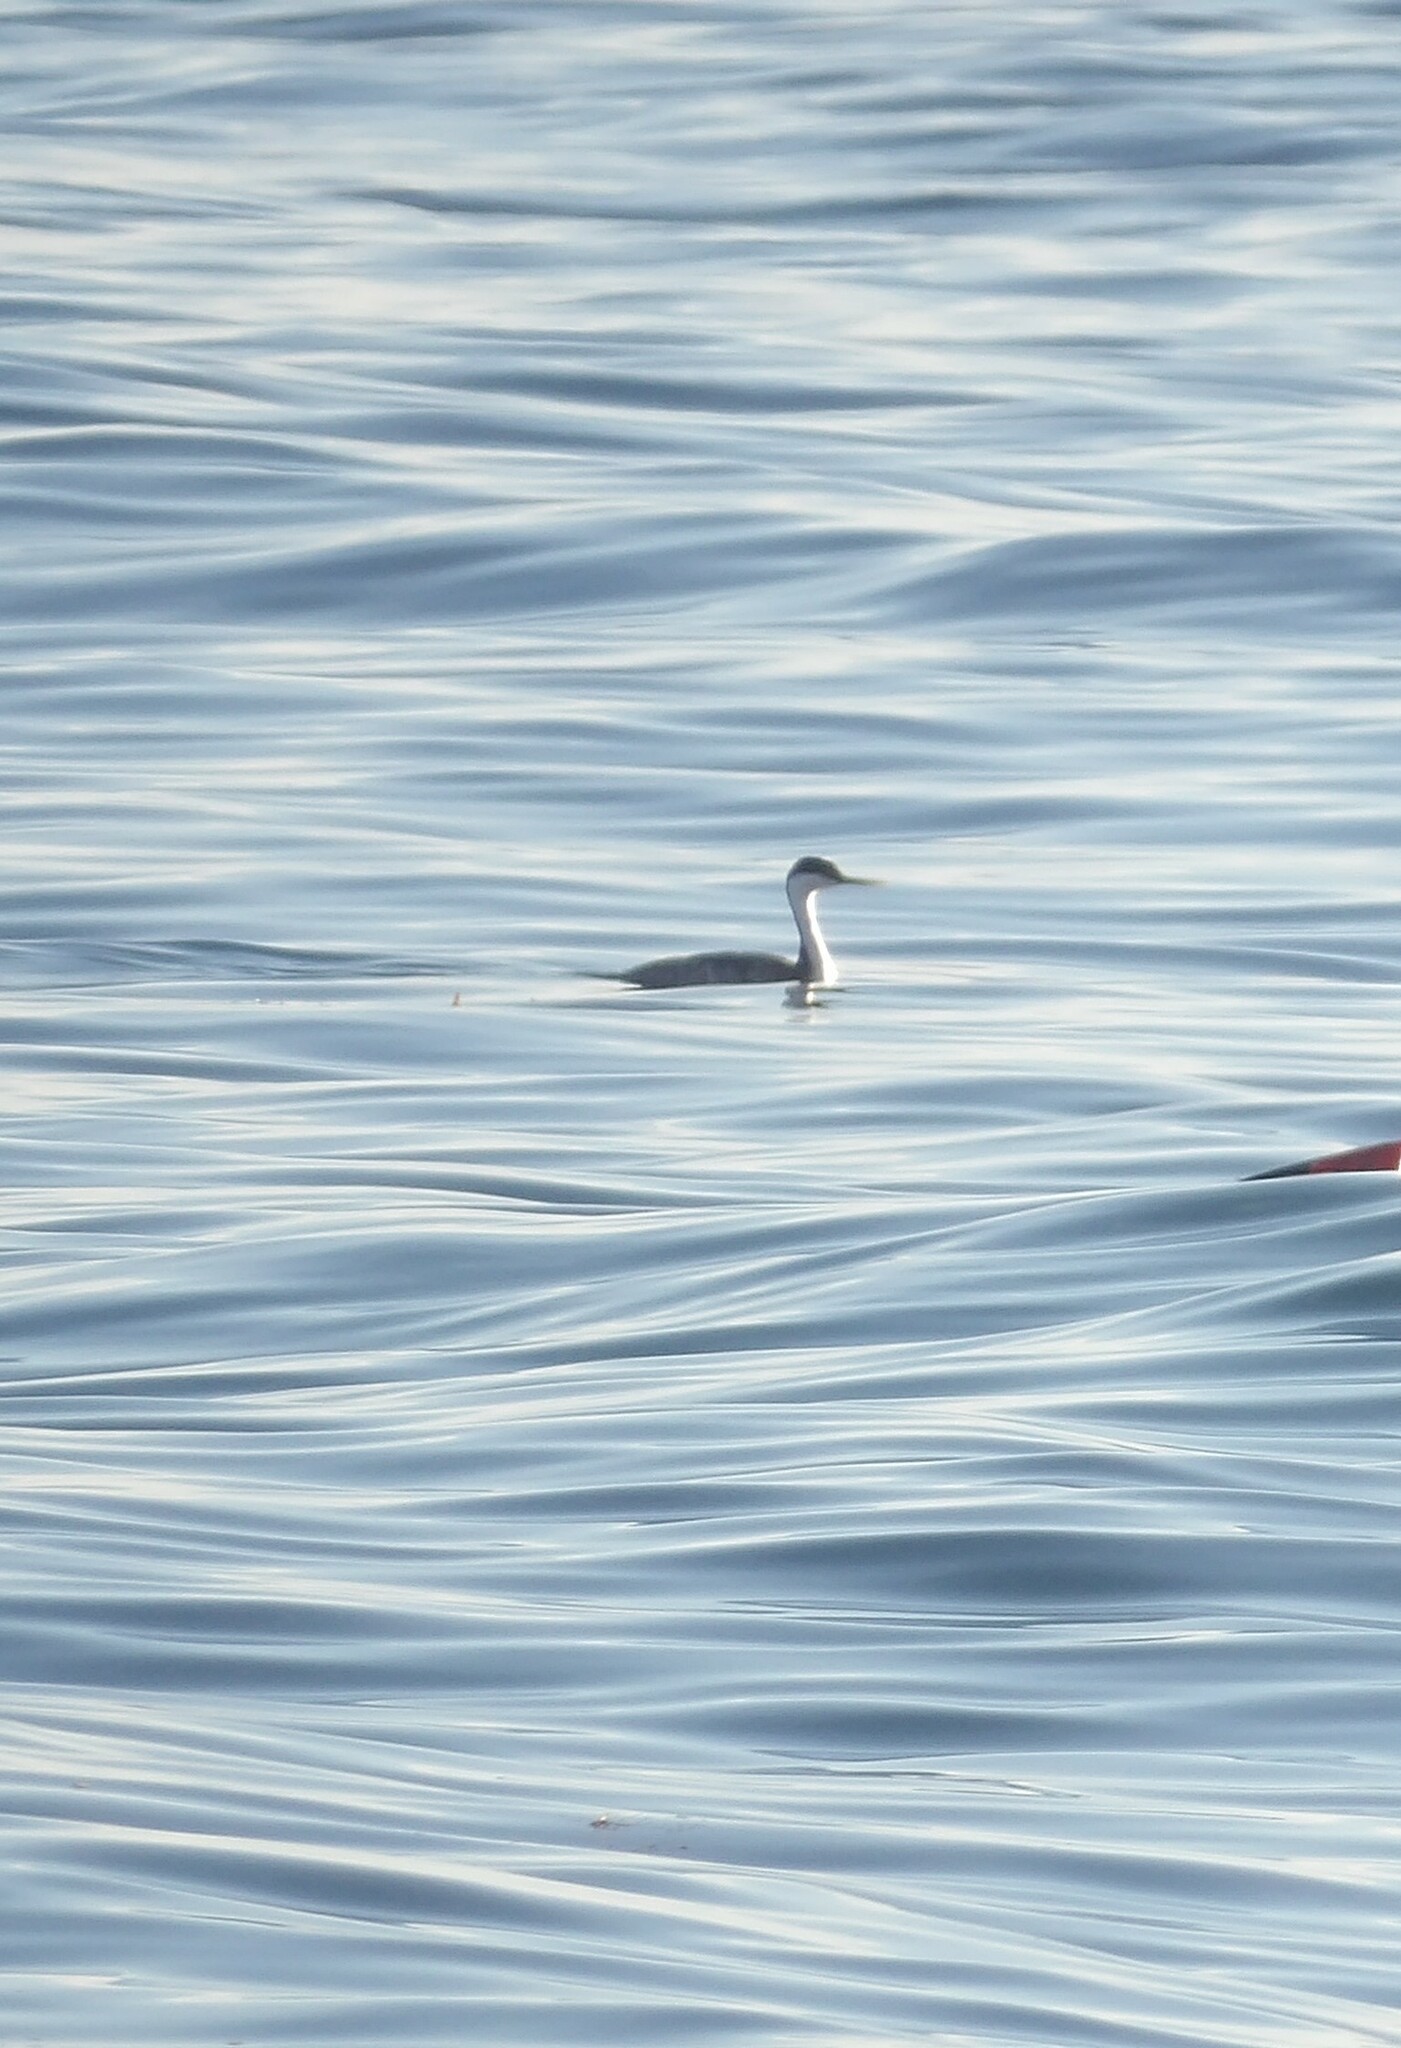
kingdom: Animalia
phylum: Chordata
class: Aves
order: Podicipediformes
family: Podicipedidae
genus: Aechmophorus
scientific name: Aechmophorus occidentalis
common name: Western grebe
